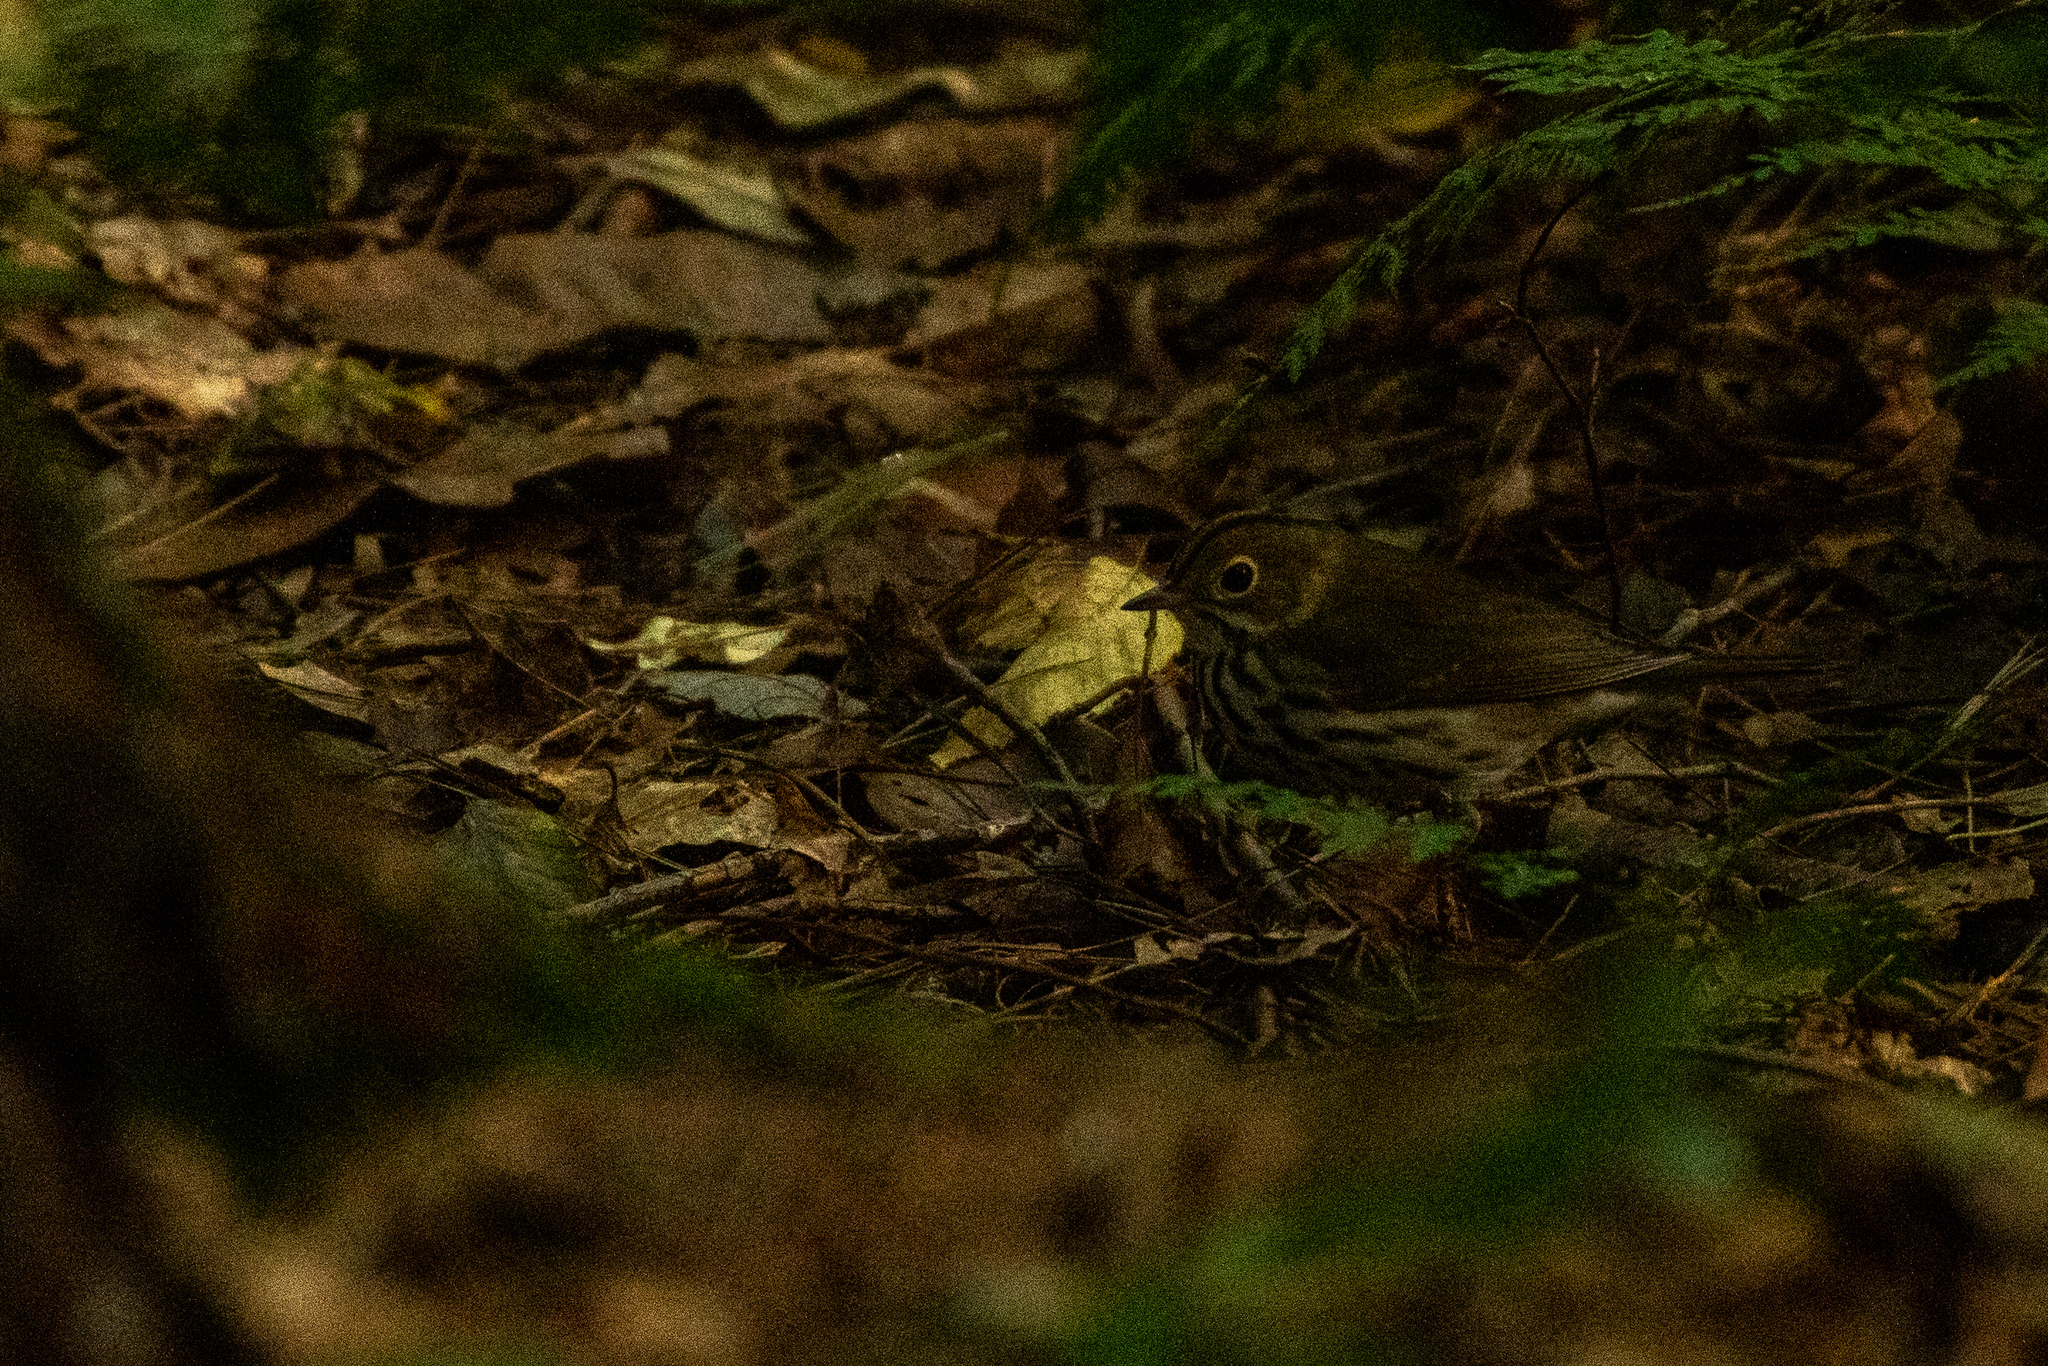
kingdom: Animalia
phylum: Chordata
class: Aves
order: Passeriformes
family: Parulidae
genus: Seiurus
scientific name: Seiurus aurocapilla
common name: Ovenbird
